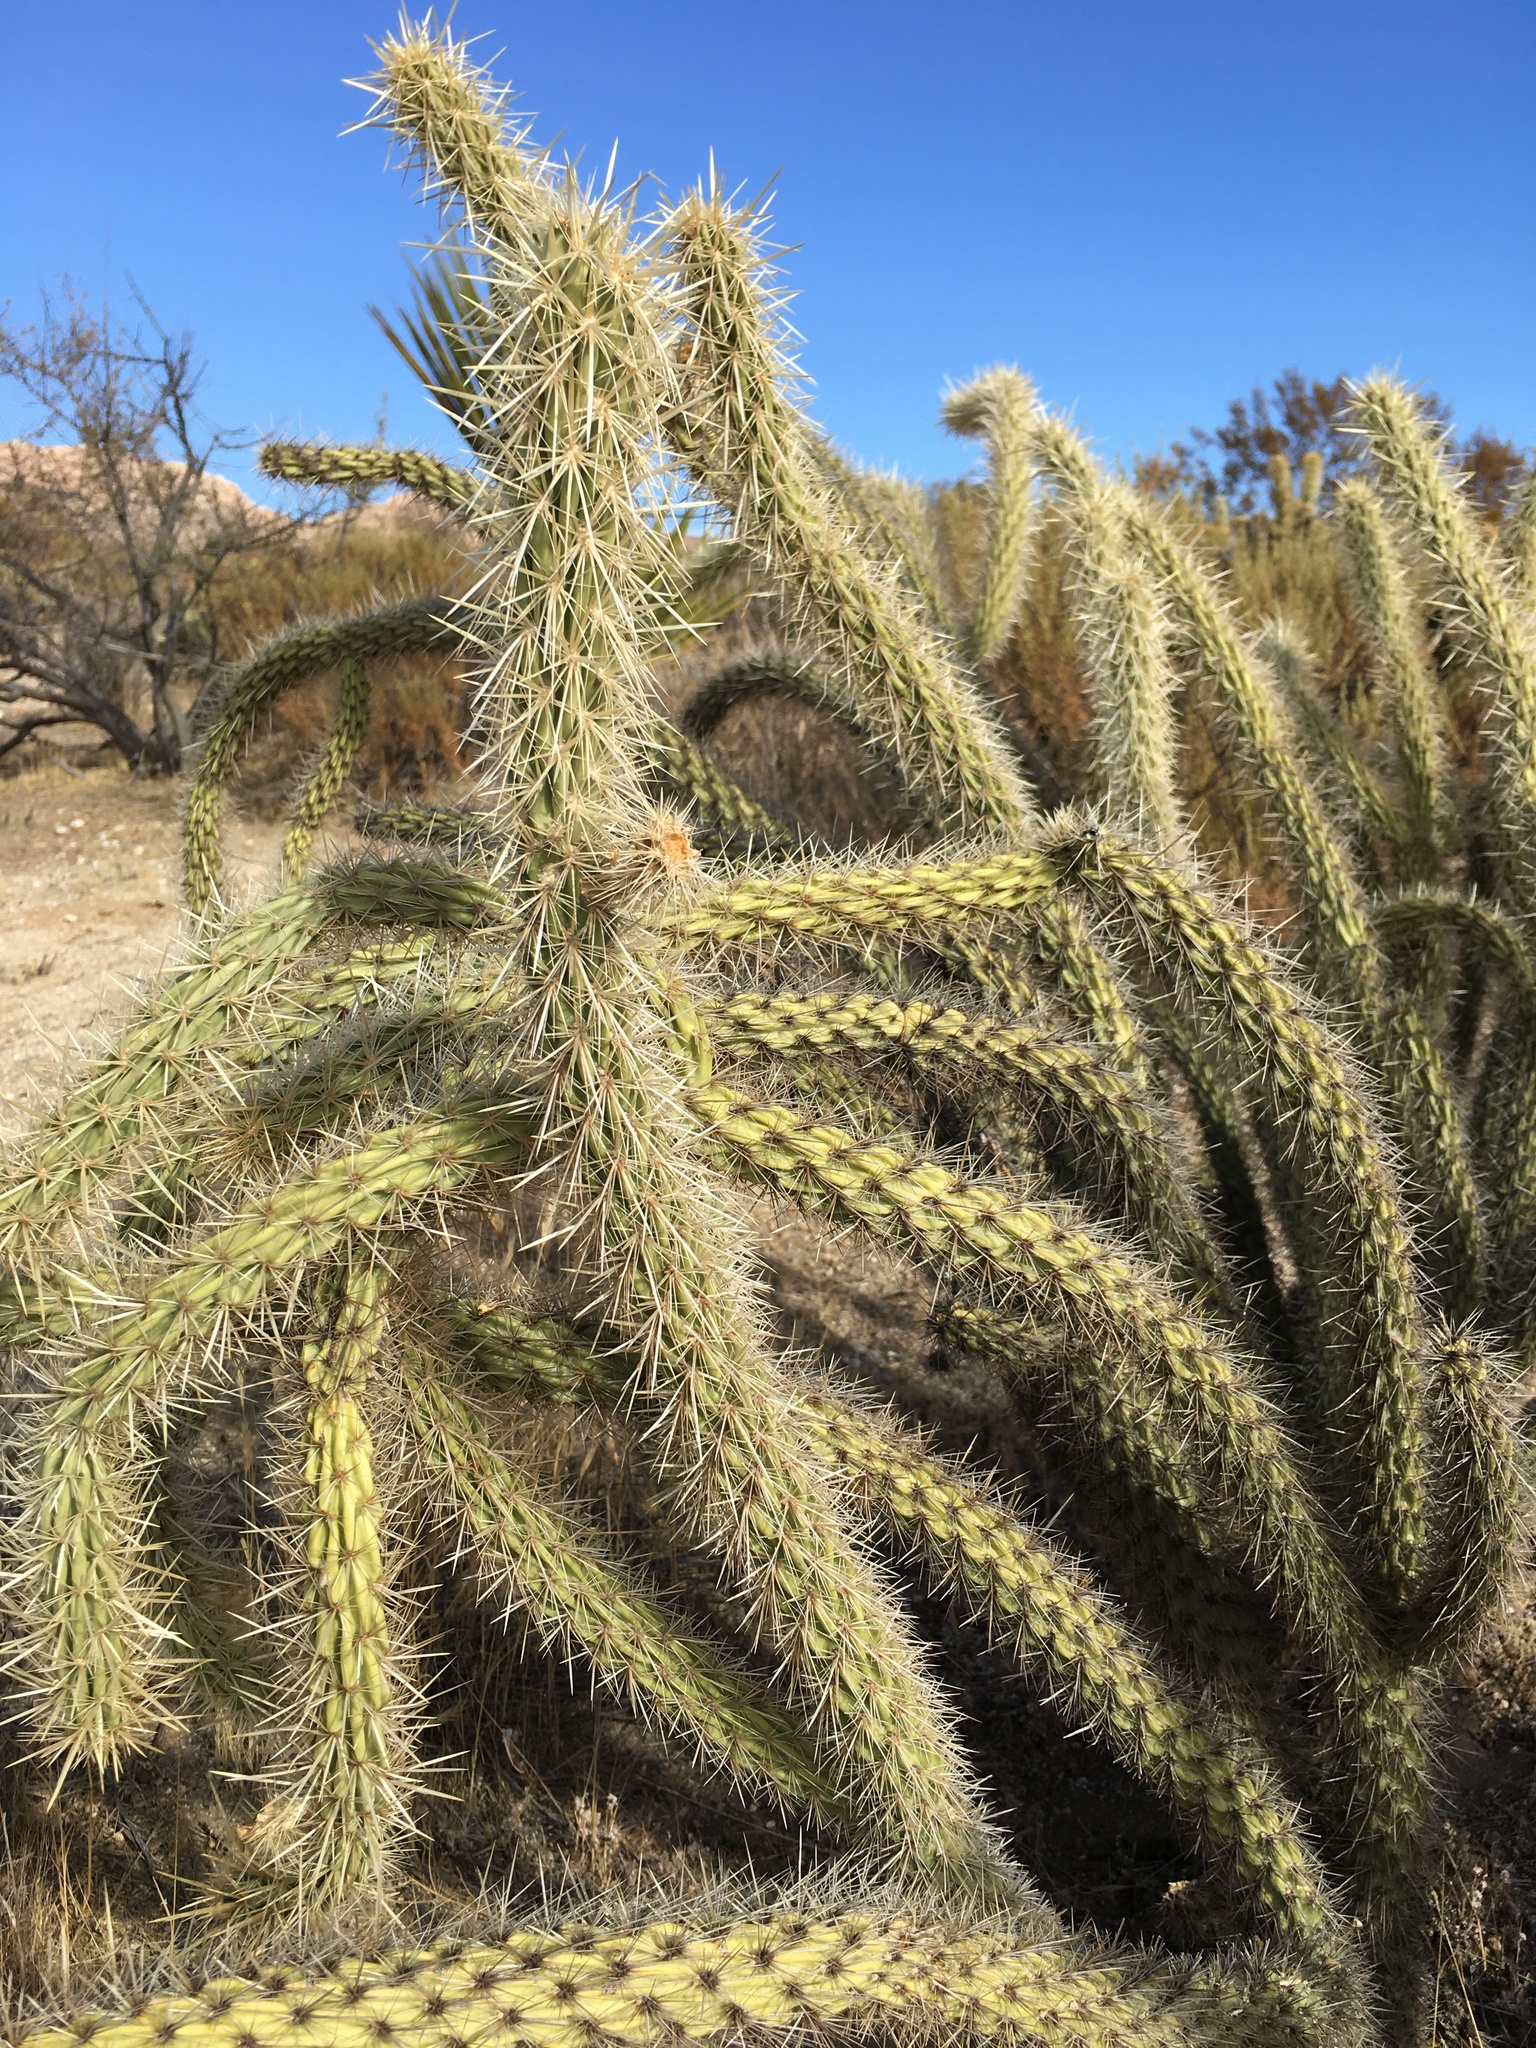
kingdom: Plantae
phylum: Tracheophyta
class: Magnoliopsida
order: Caryophyllales
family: Cactaceae
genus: Cylindropuntia
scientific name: Cylindropuntia ganderi
